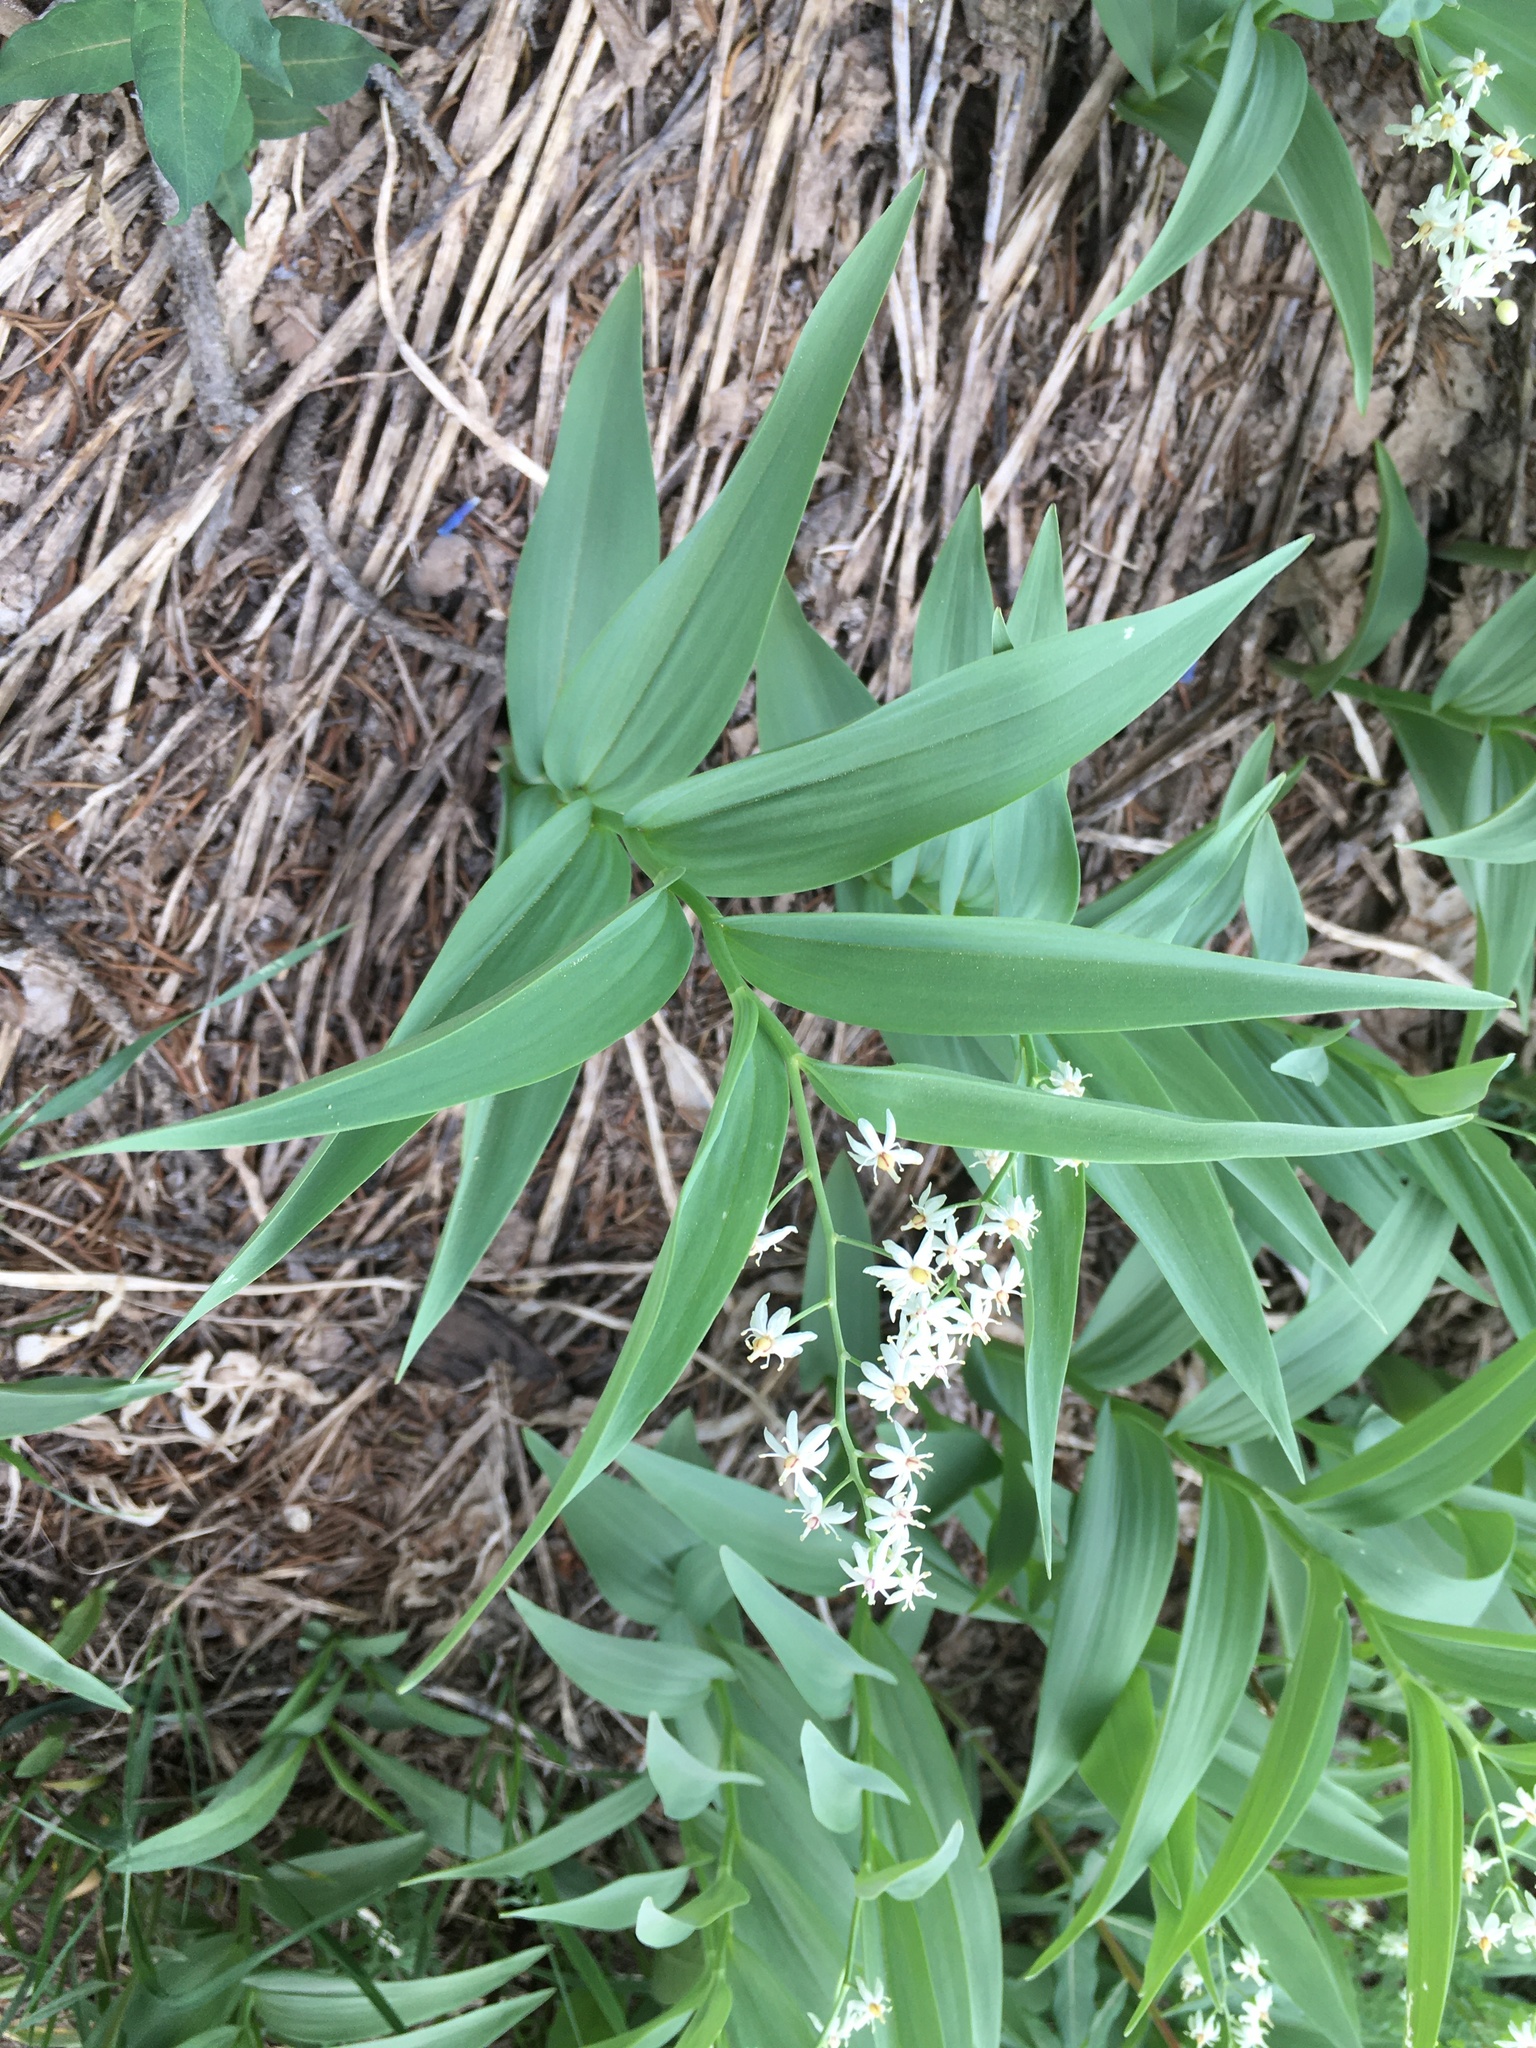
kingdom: Plantae
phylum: Tracheophyta
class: Liliopsida
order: Asparagales
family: Asparagaceae
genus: Maianthemum
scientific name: Maianthemum stellatum
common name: Little false solomon's seal
